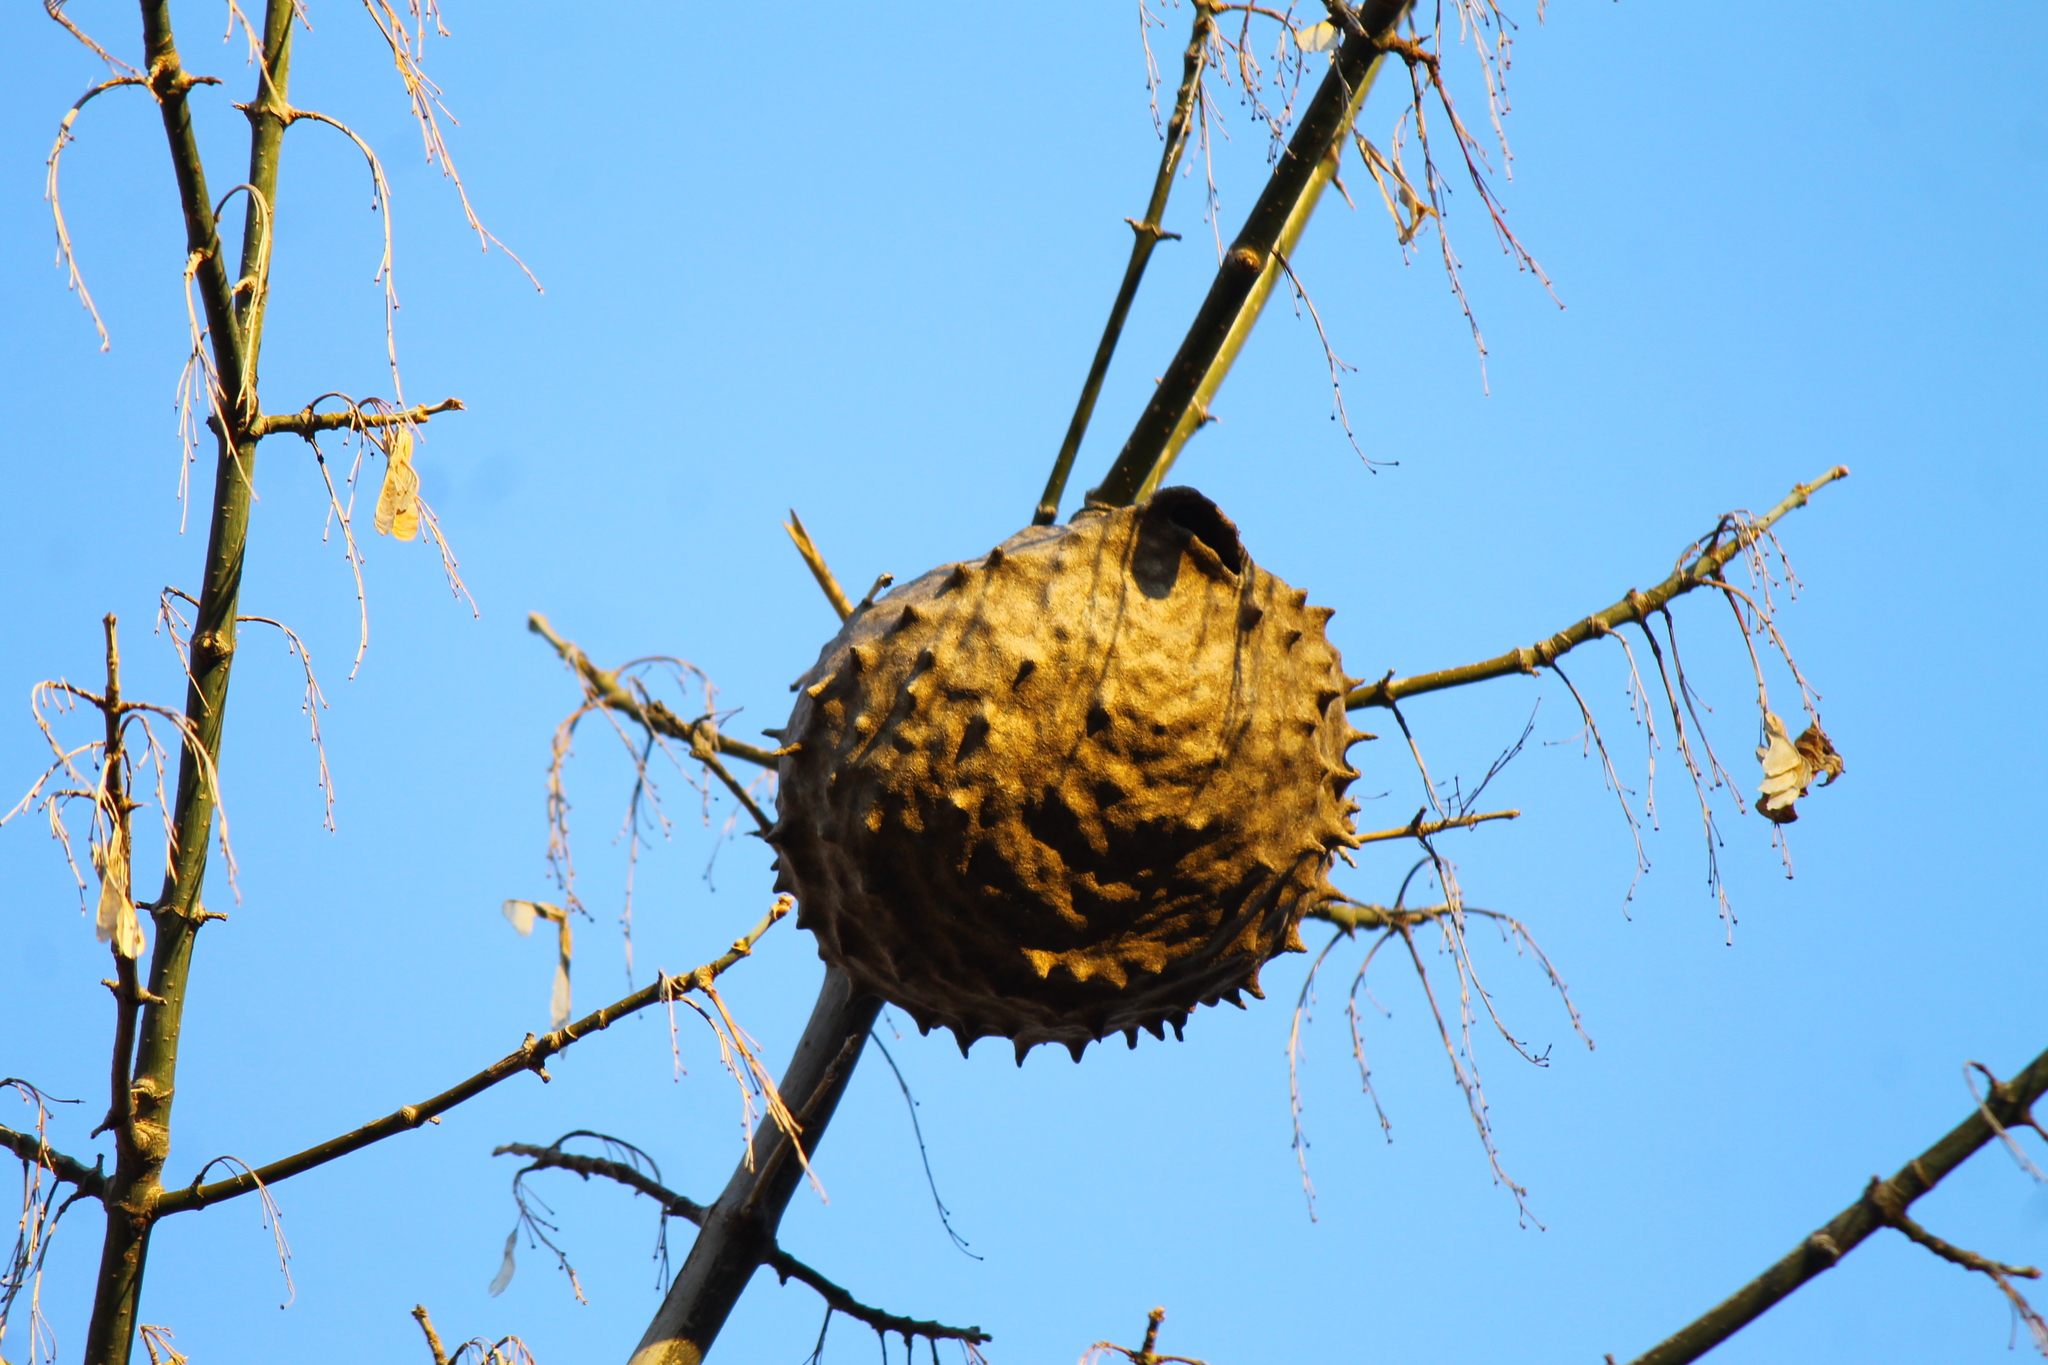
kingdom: Animalia
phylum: Arthropoda
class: Insecta
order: Hymenoptera
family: Eumenidae
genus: Polybia
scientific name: Polybia scutellaris
